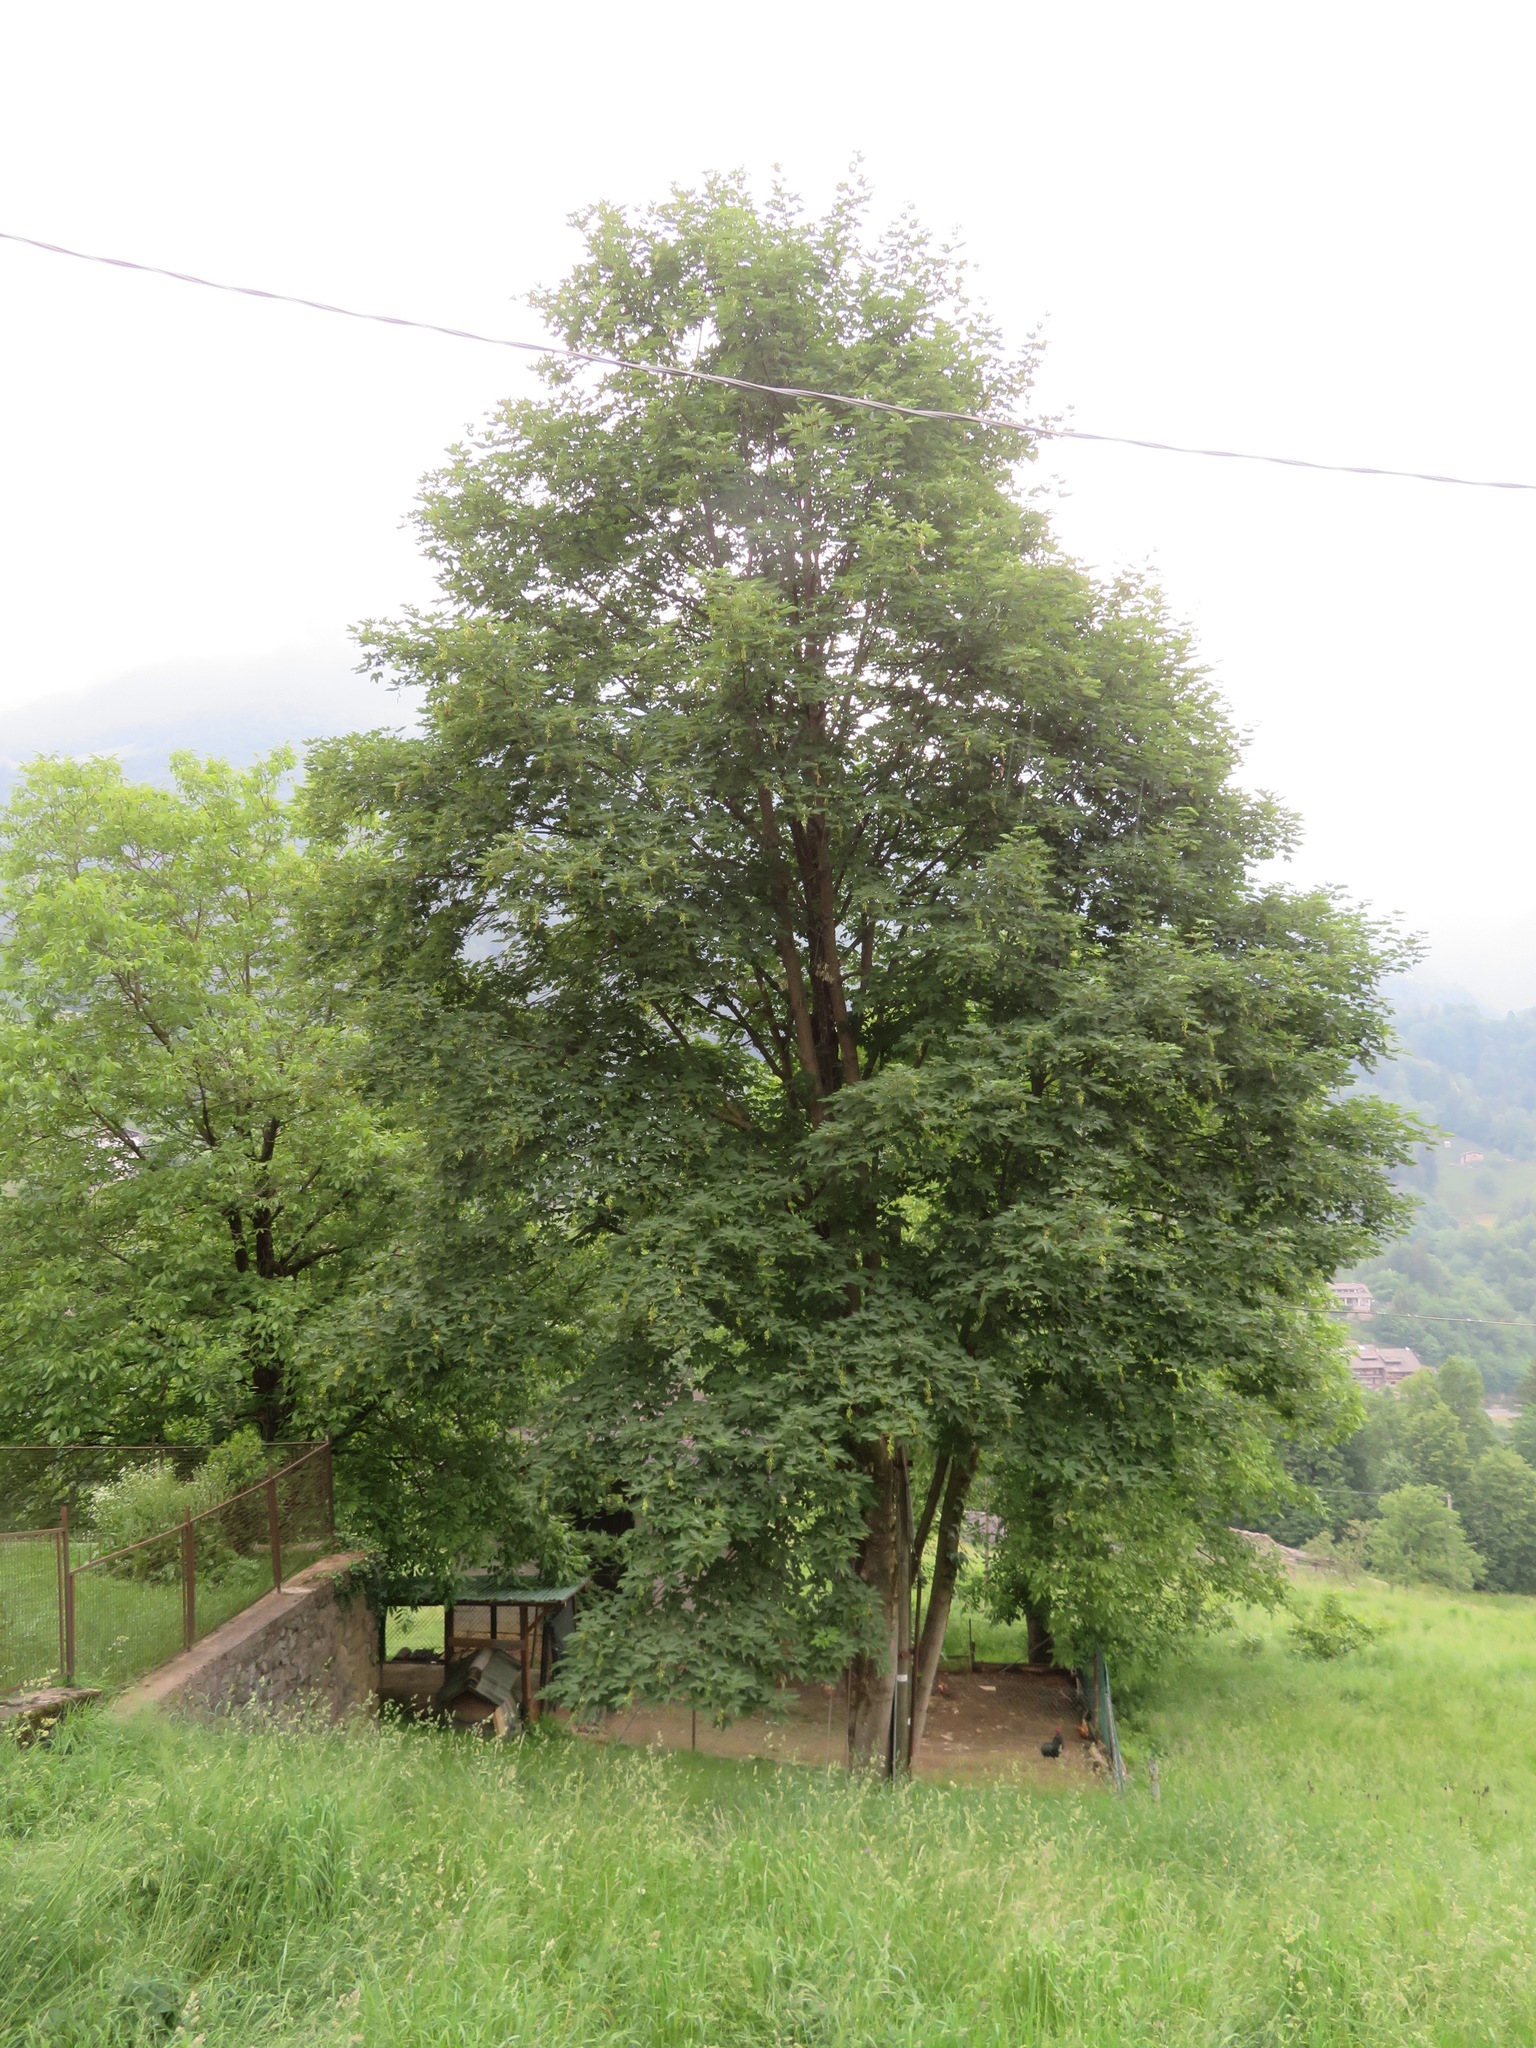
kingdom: Plantae
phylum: Tracheophyta
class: Magnoliopsida
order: Sapindales
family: Sapindaceae
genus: Acer
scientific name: Acer pseudoplatanus
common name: Sycamore
